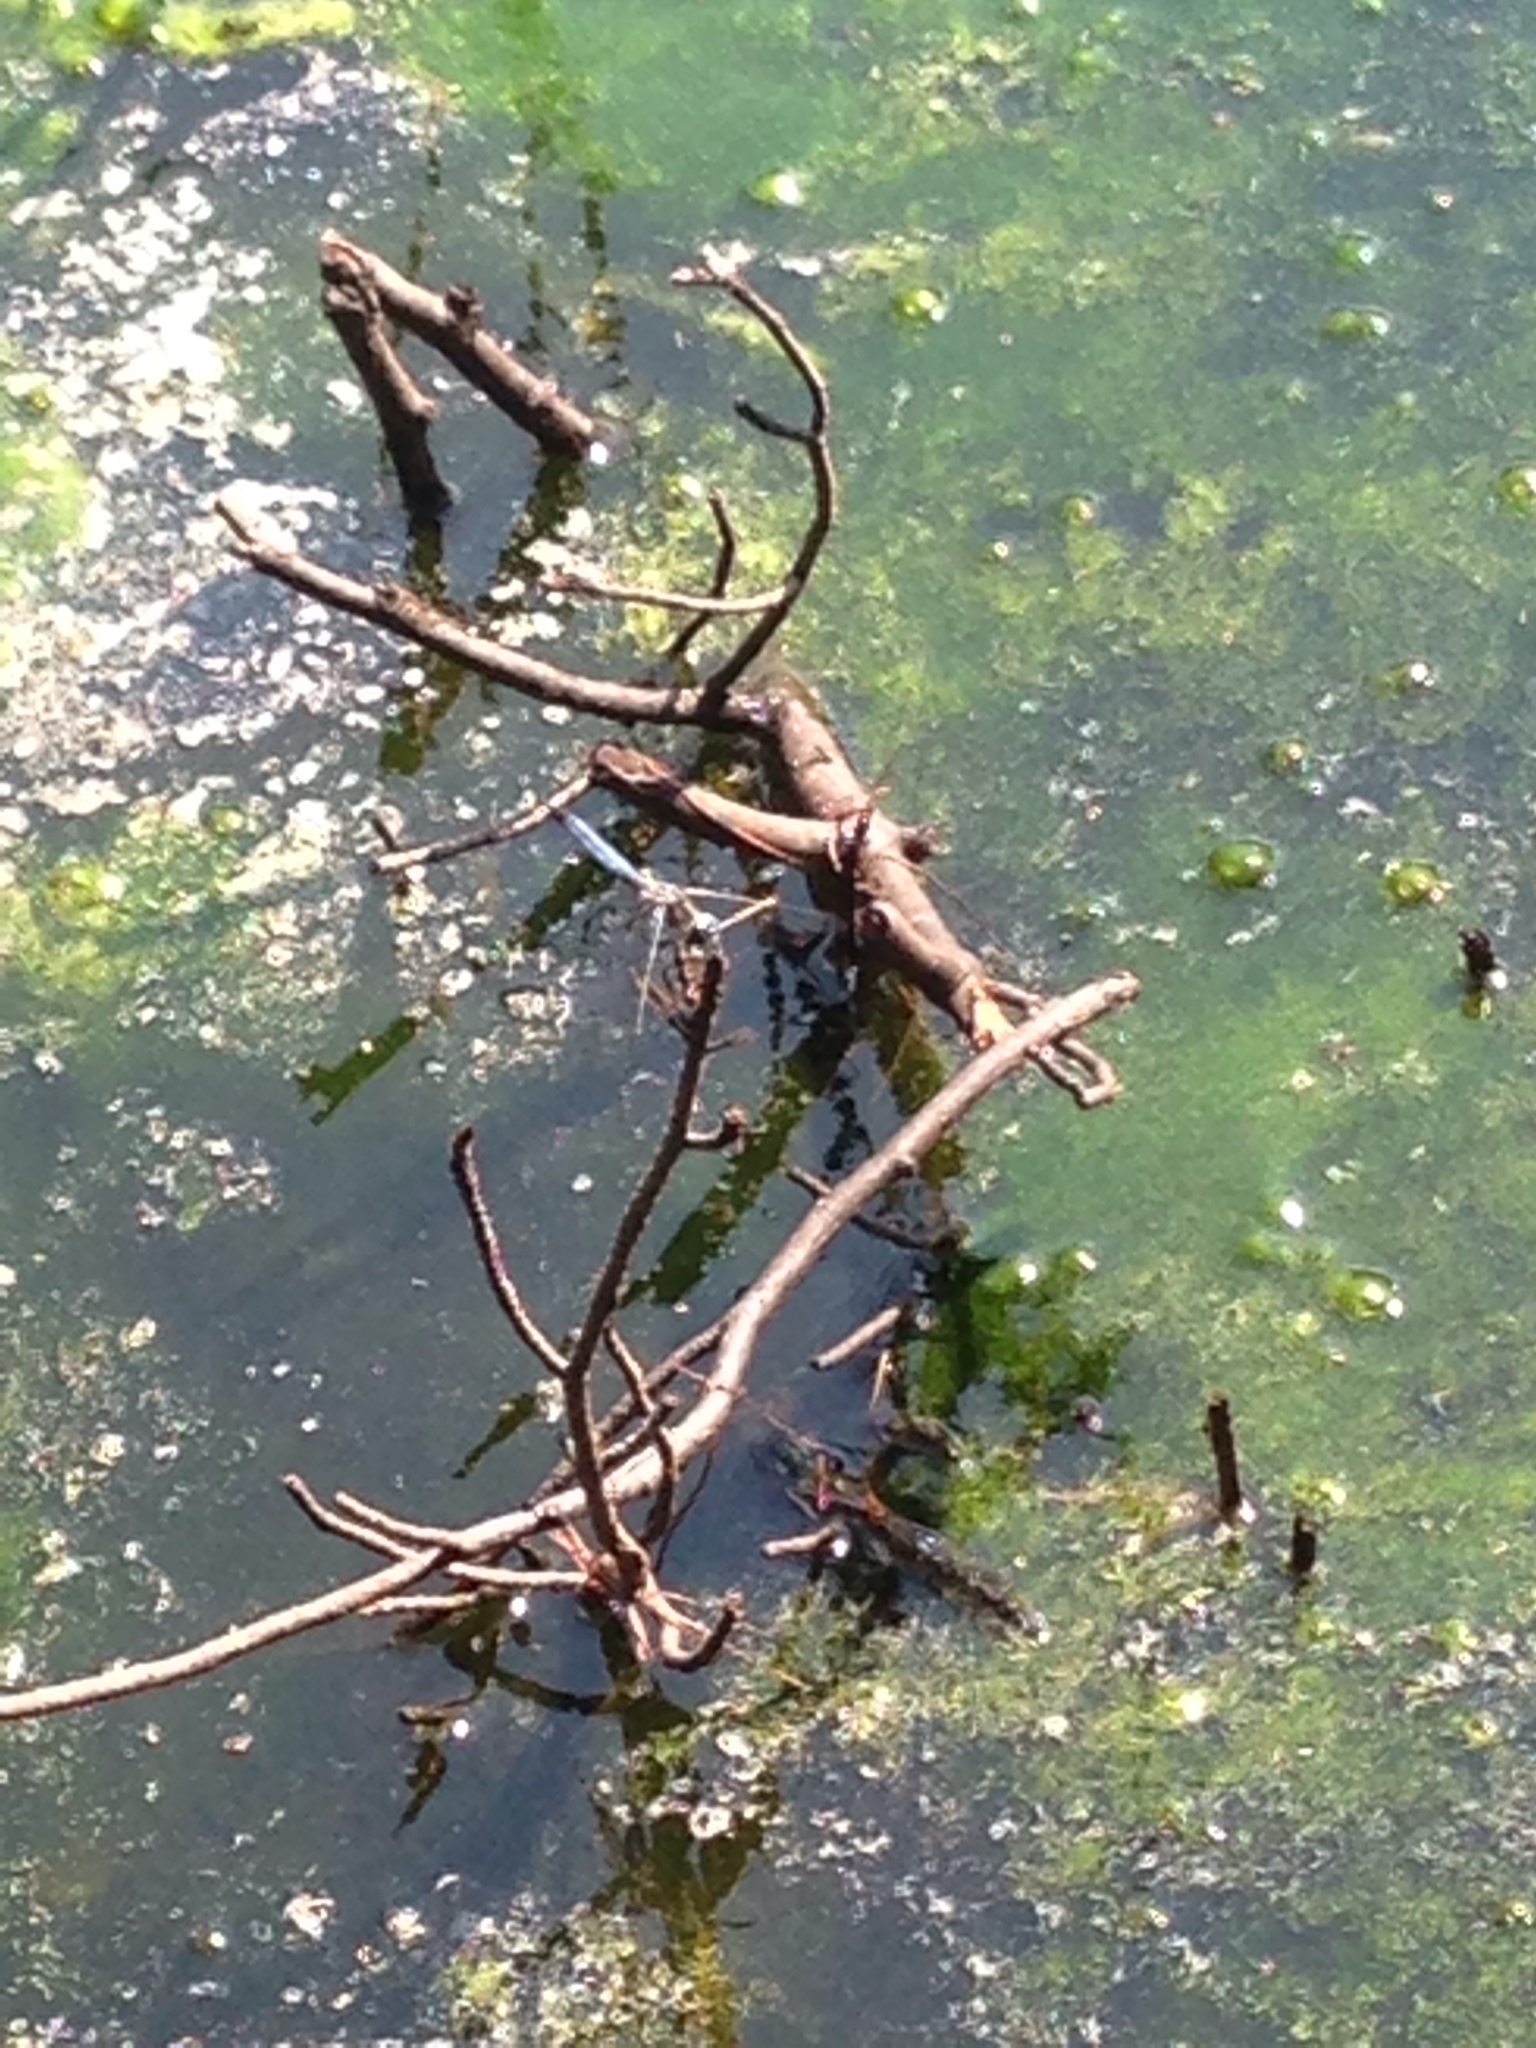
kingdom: Animalia
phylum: Arthropoda
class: Insecta
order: Odonata
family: Libellulidae
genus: Pachydiplax
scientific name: Pachydiplax longipennis
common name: Blue dasher
